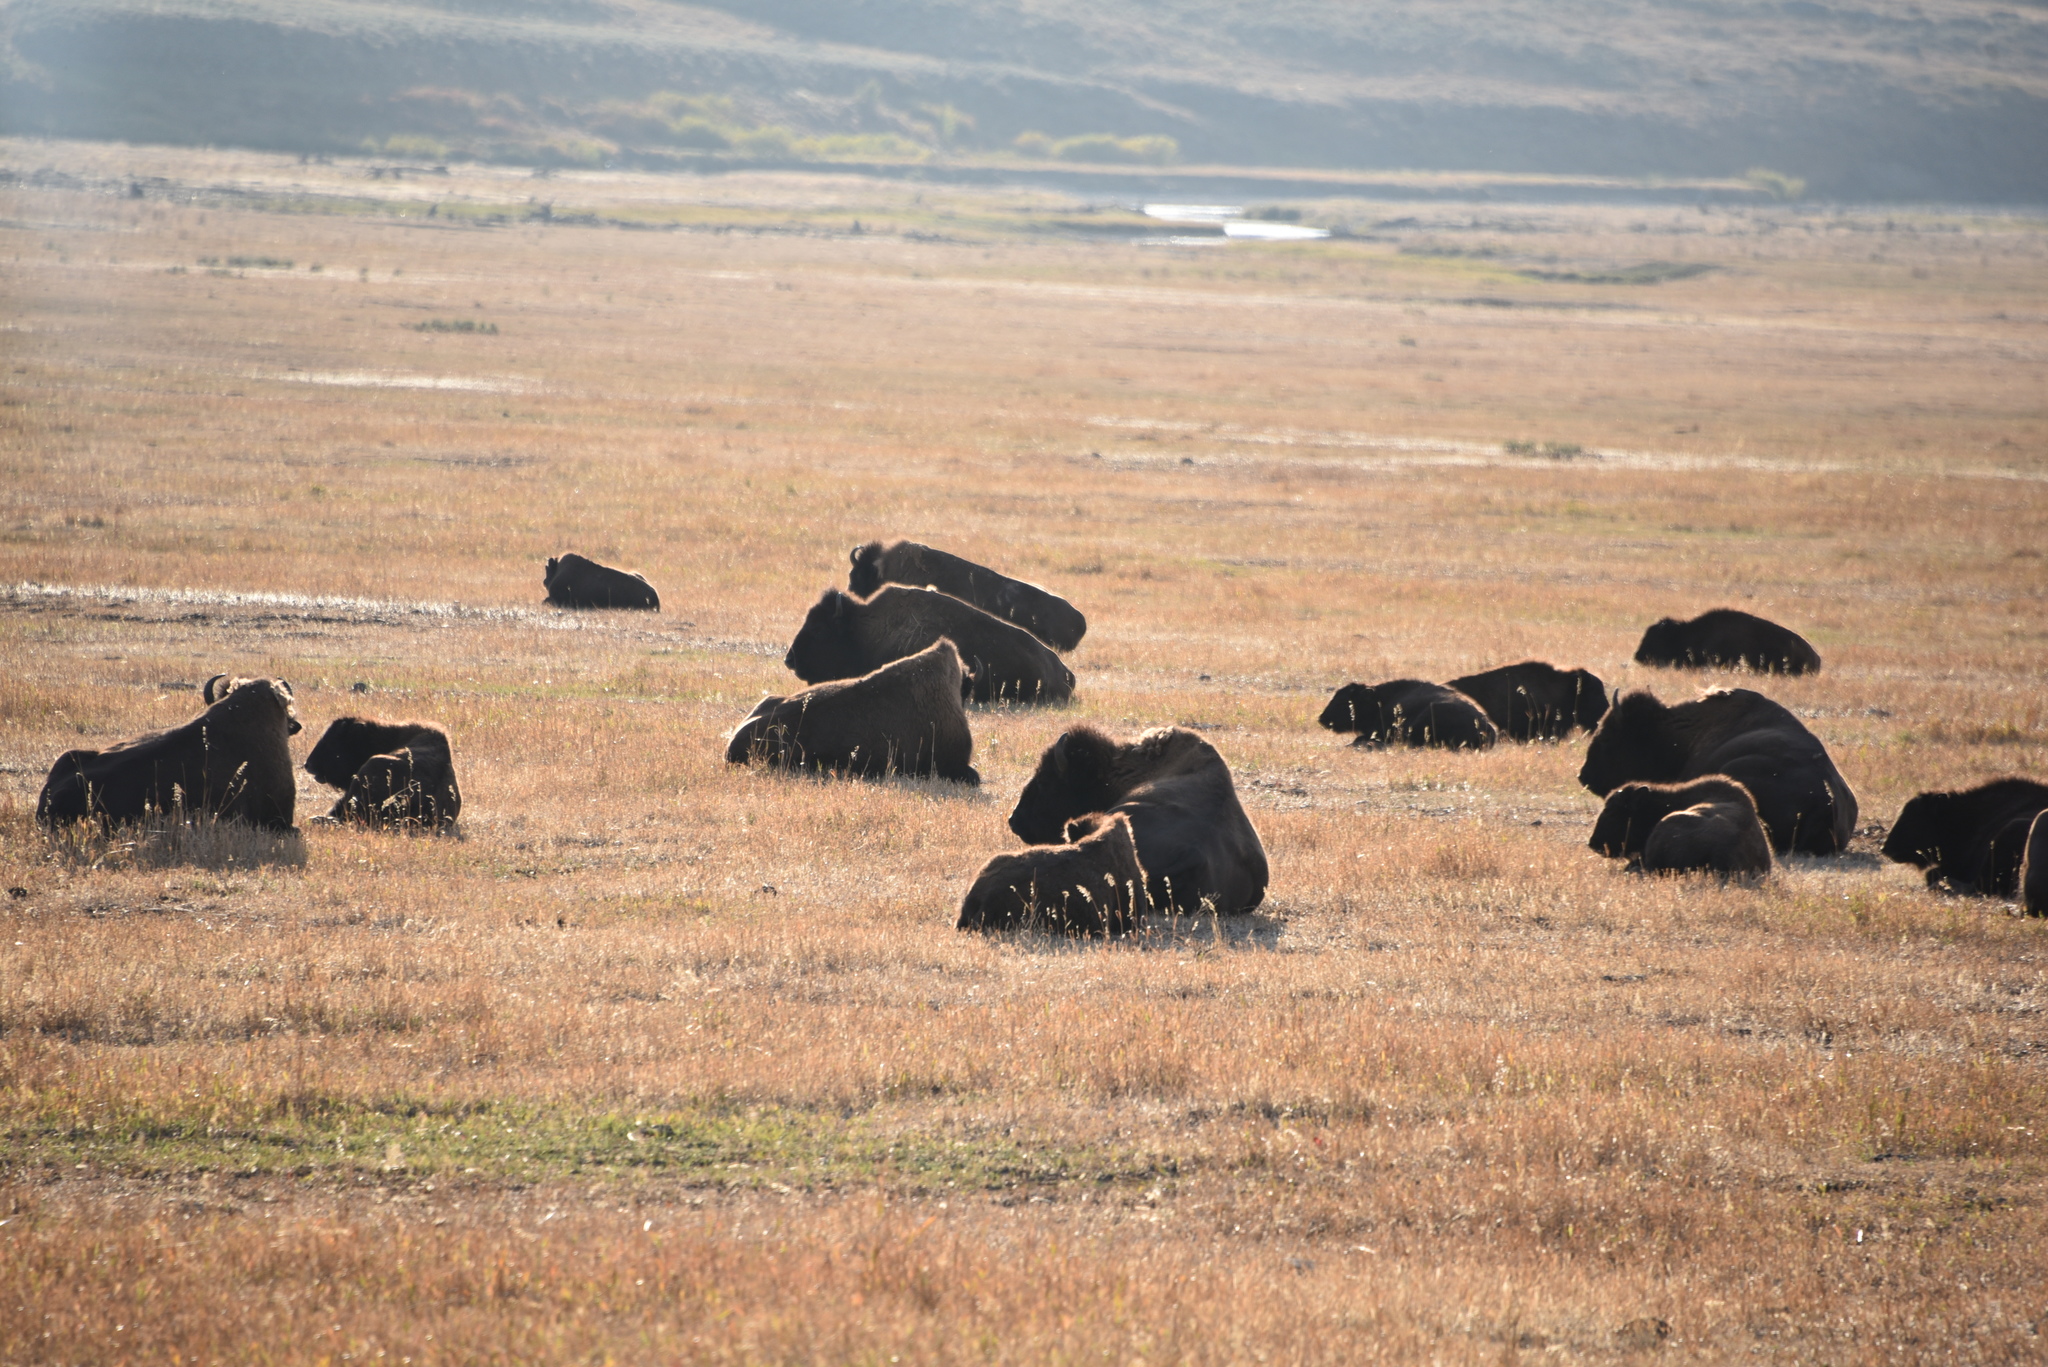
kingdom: Animalia
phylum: Chordata
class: Mammalia
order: Artiodactyla
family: Bovidae
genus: Bison
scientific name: Bison bison
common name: American bison
